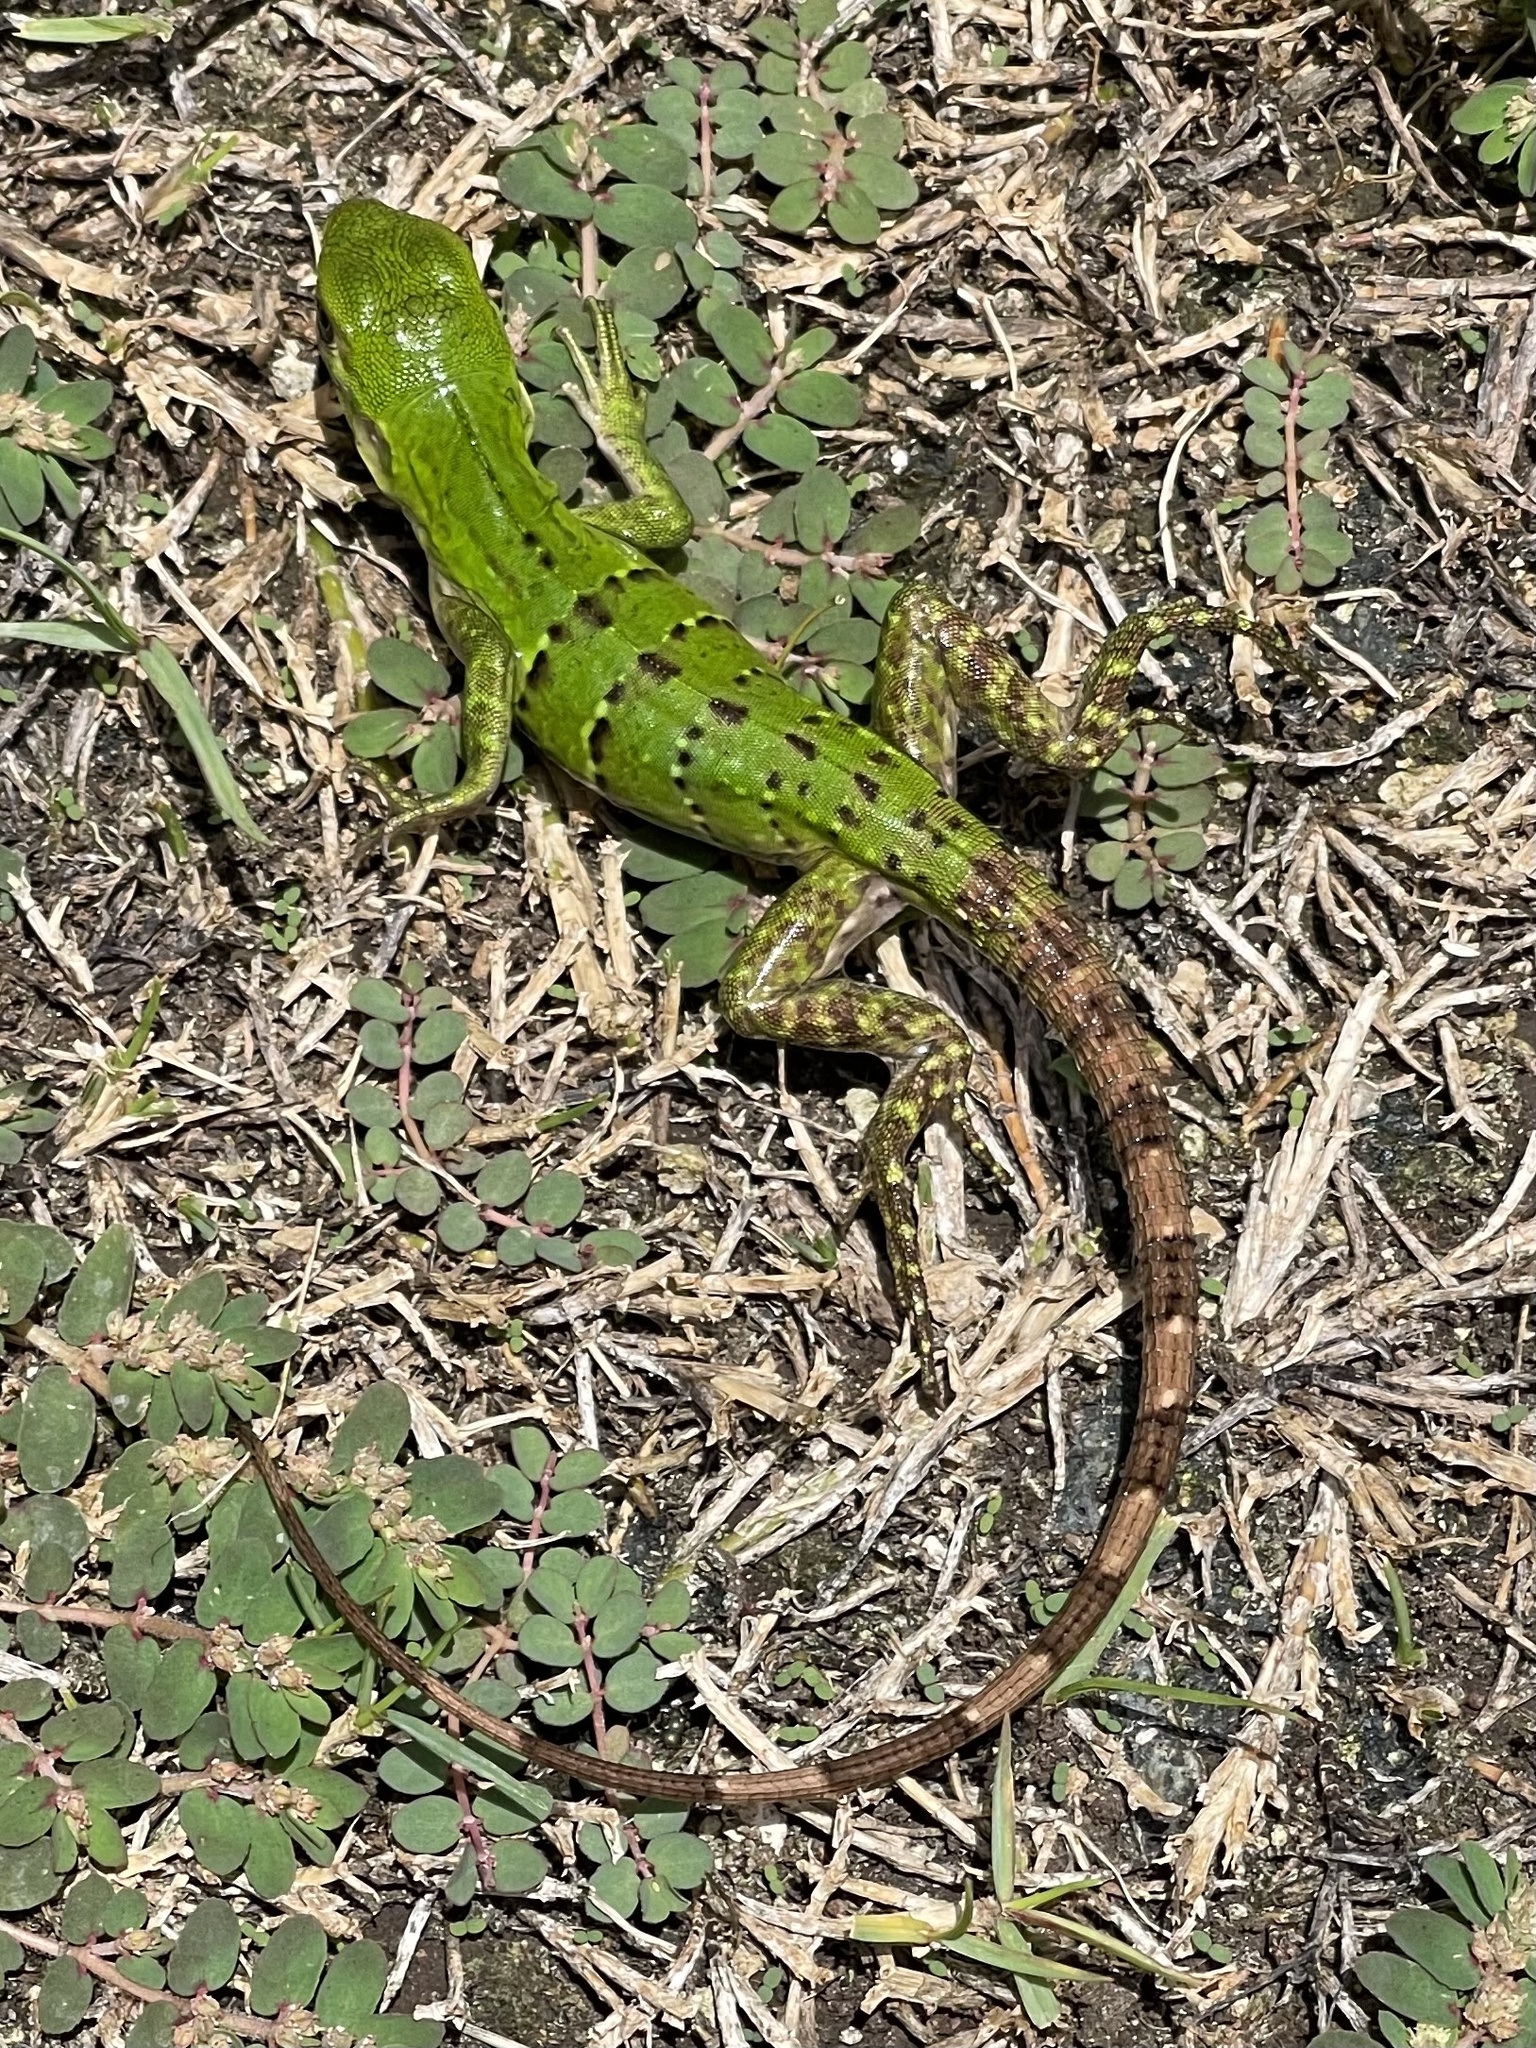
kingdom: Animalia
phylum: Chordata
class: Squamata
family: Iguanidae
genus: Ctenosaura
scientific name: Ctenosaura similis
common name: Black spiny-tailed iguana
